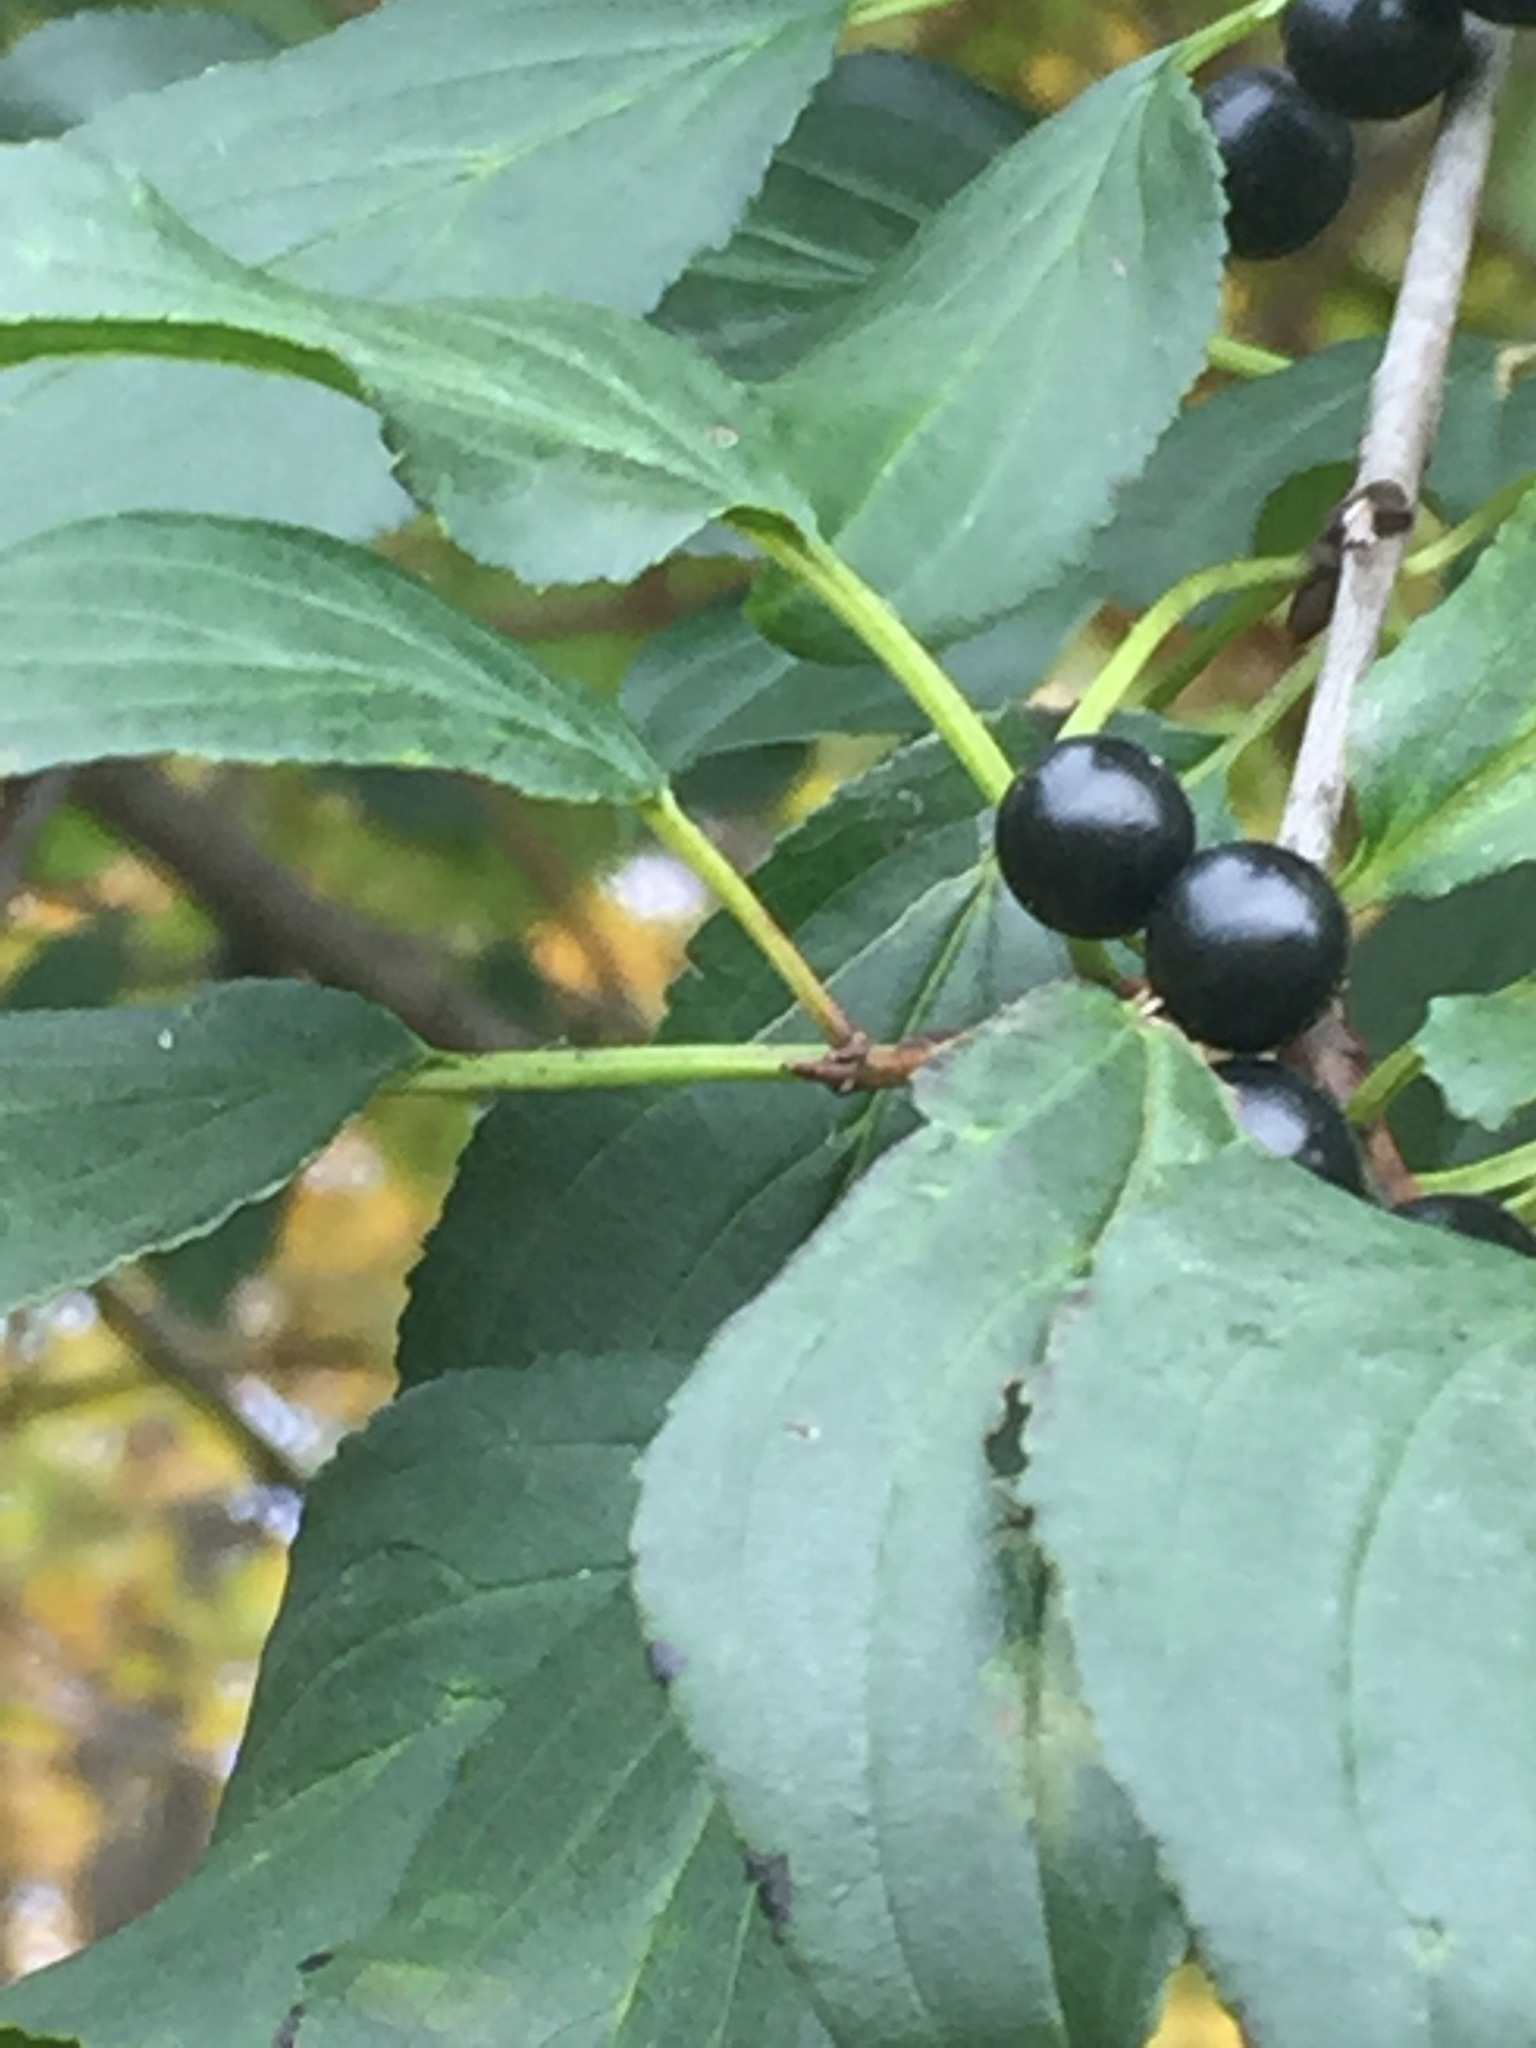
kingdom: Plantae
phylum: Tracheophyta
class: Magnoliopsida
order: Rosales
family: Rhamnaceae
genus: Rhamnus
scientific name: Rhamnus cathartica
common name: Common buckthorn
